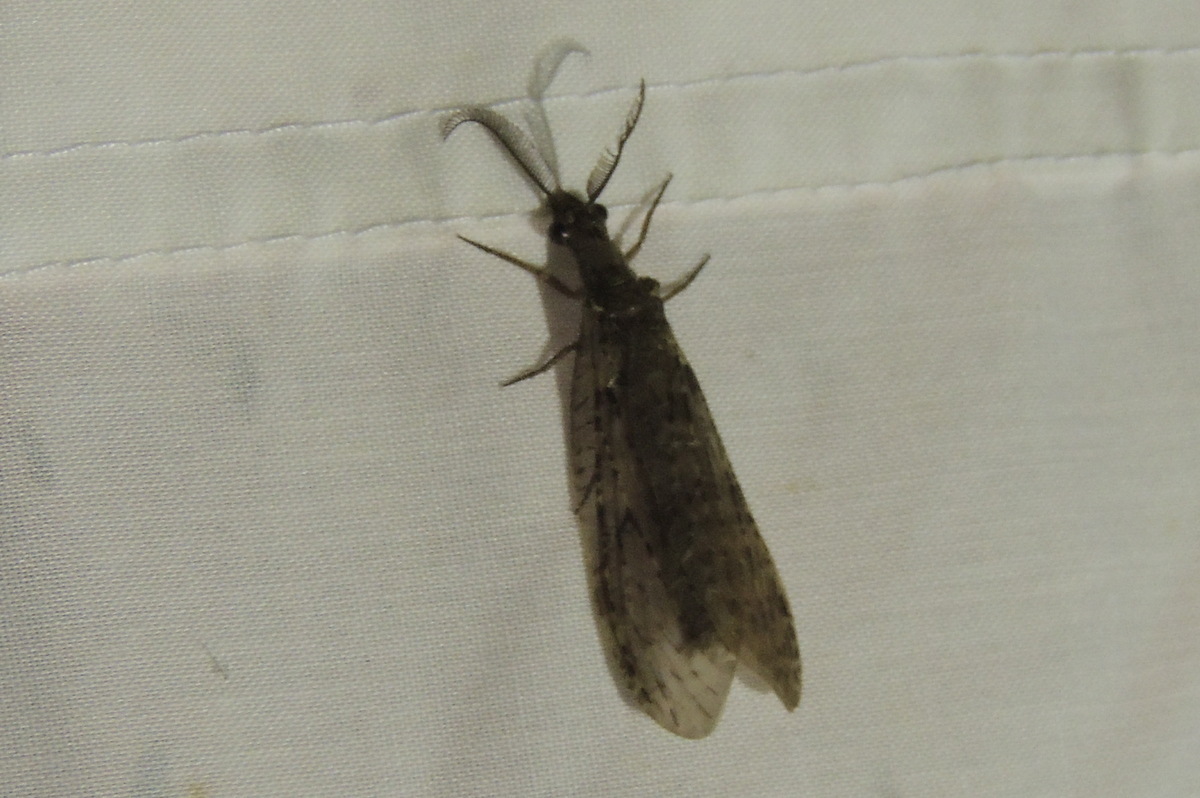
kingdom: Animalia
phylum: Arthropoda
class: Insecta
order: Megaloptera
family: Corydalidae
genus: Chauliodes
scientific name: Chauliodes rastricornis
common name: Spring fishfly
